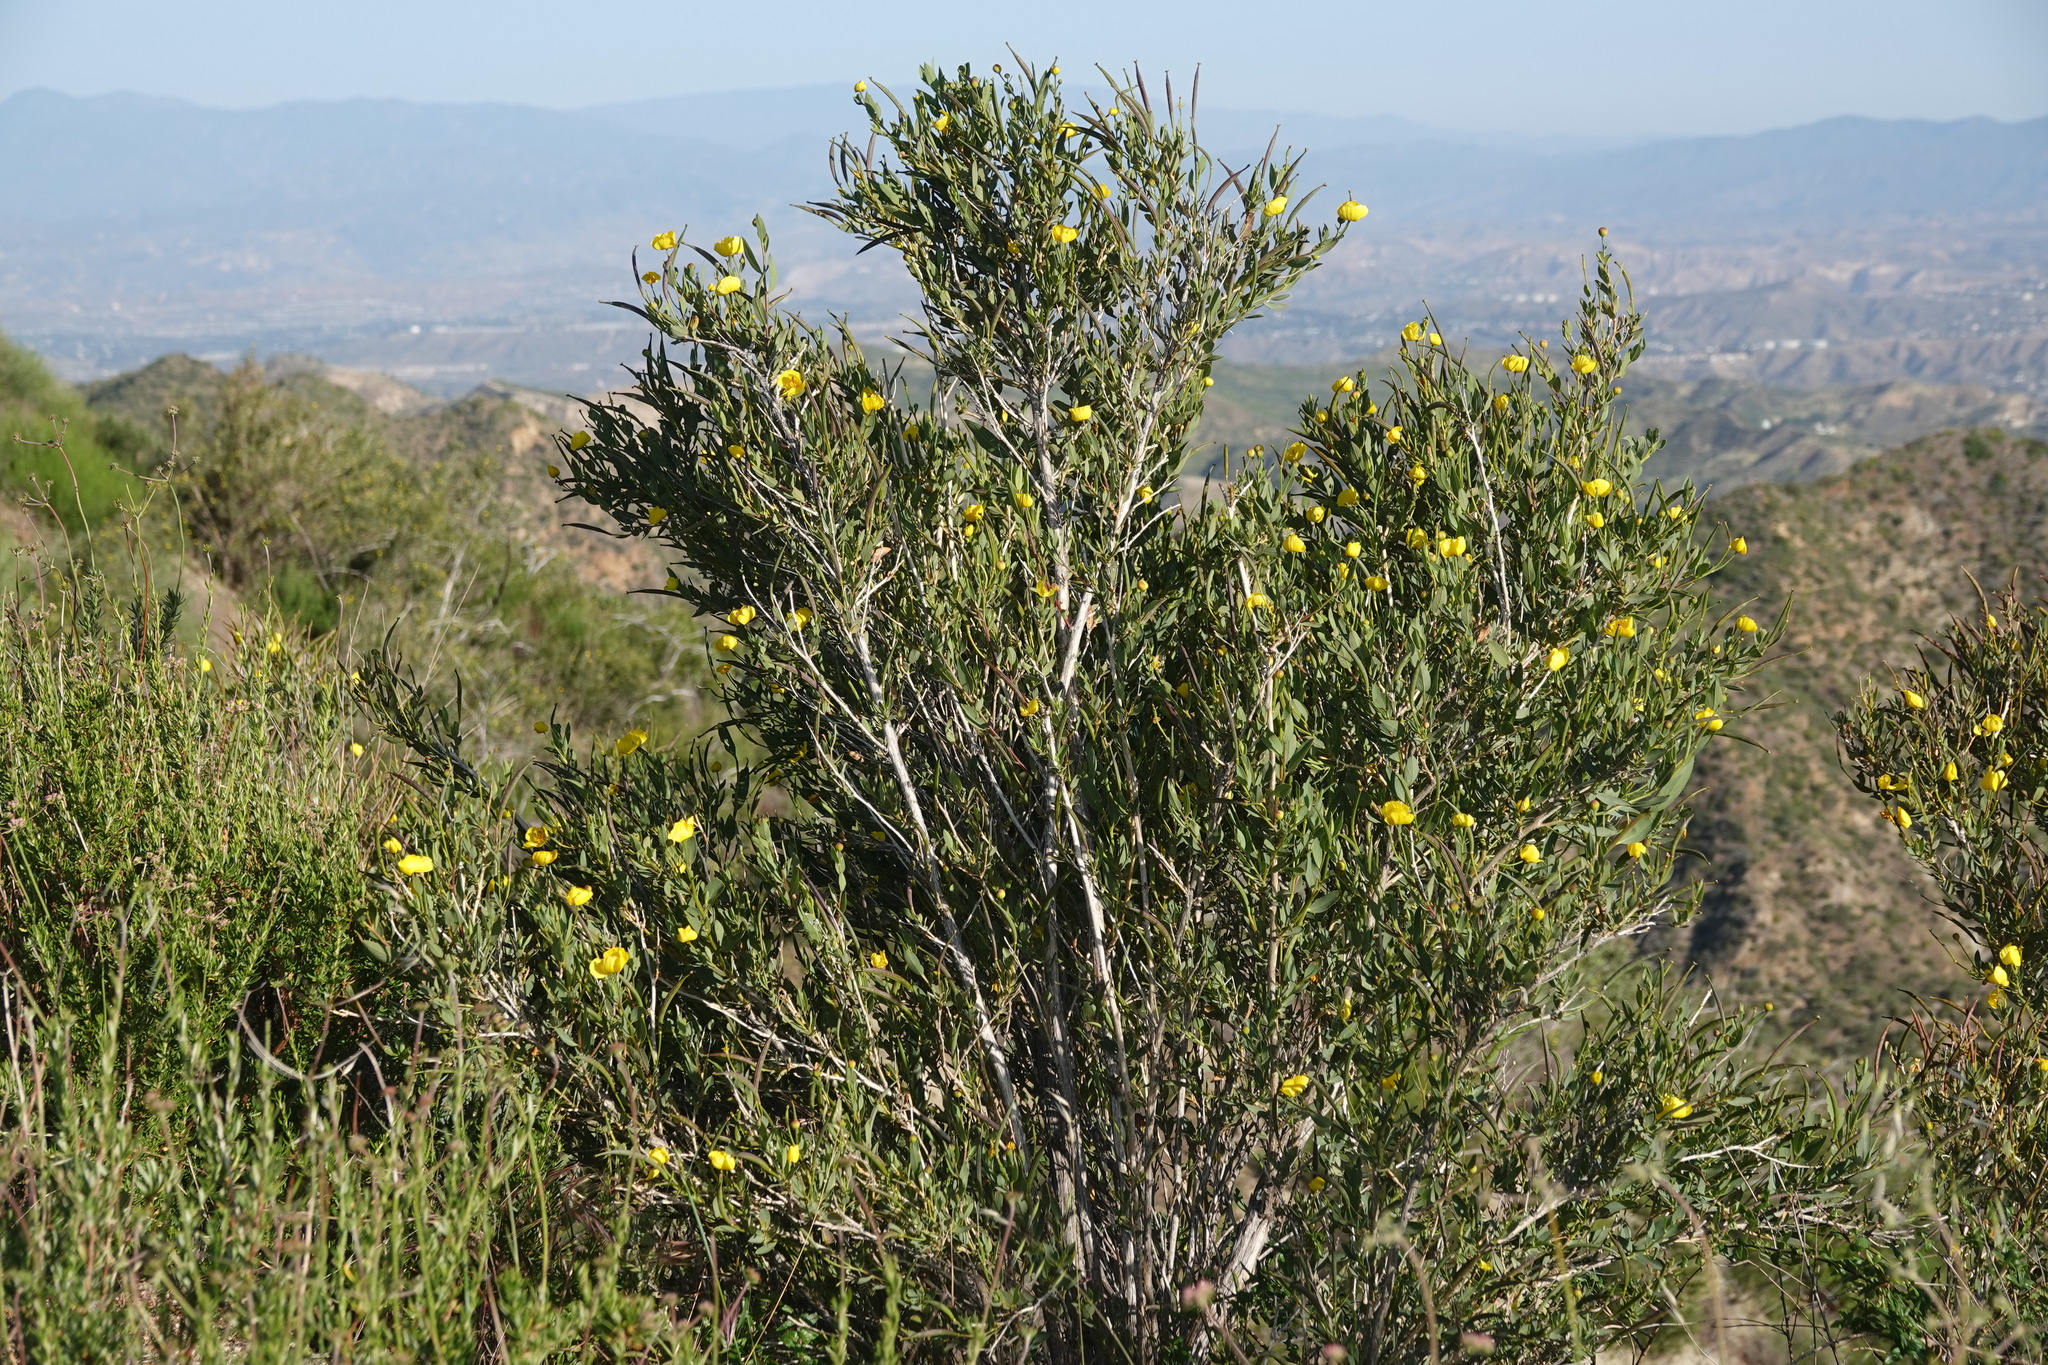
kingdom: Plantae
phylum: Tracheophyta
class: Magnoliopsida
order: Ranunculales
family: Papaveraceae
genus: Dendromecon
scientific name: Dendromecon rigida
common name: Tree poppy
